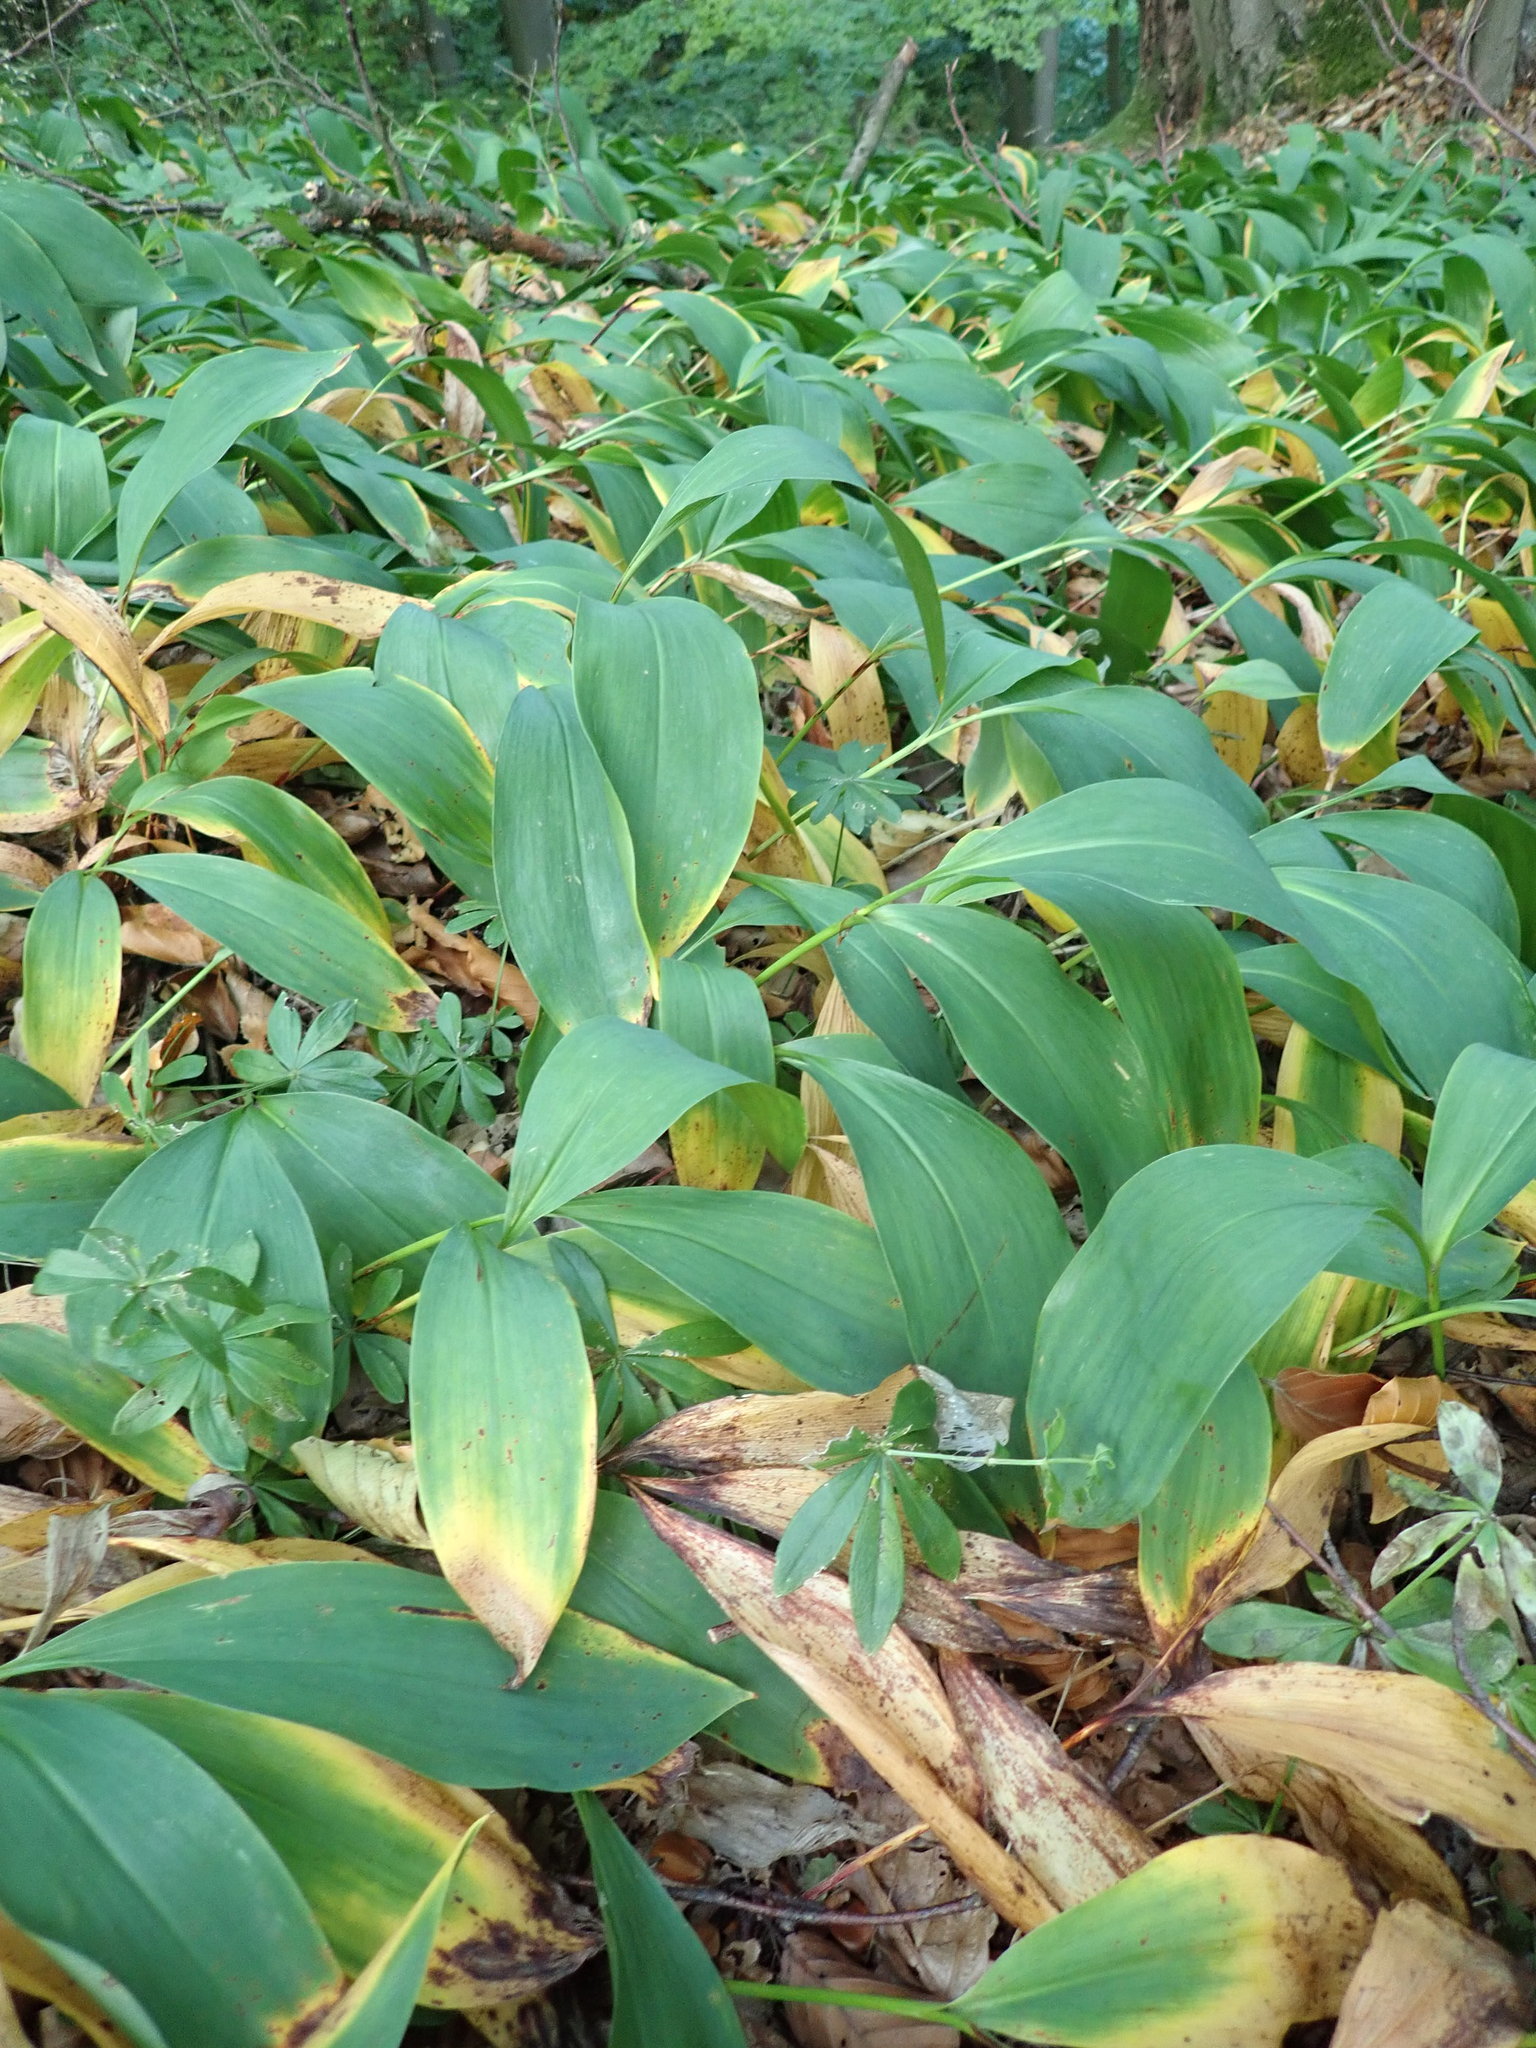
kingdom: Plantae
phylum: Tracheophyta
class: Liliopsida
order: Asparagales
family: Asparagaceae
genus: Convallaria
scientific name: Convallaria majalis
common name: Lily-of-the-valley
